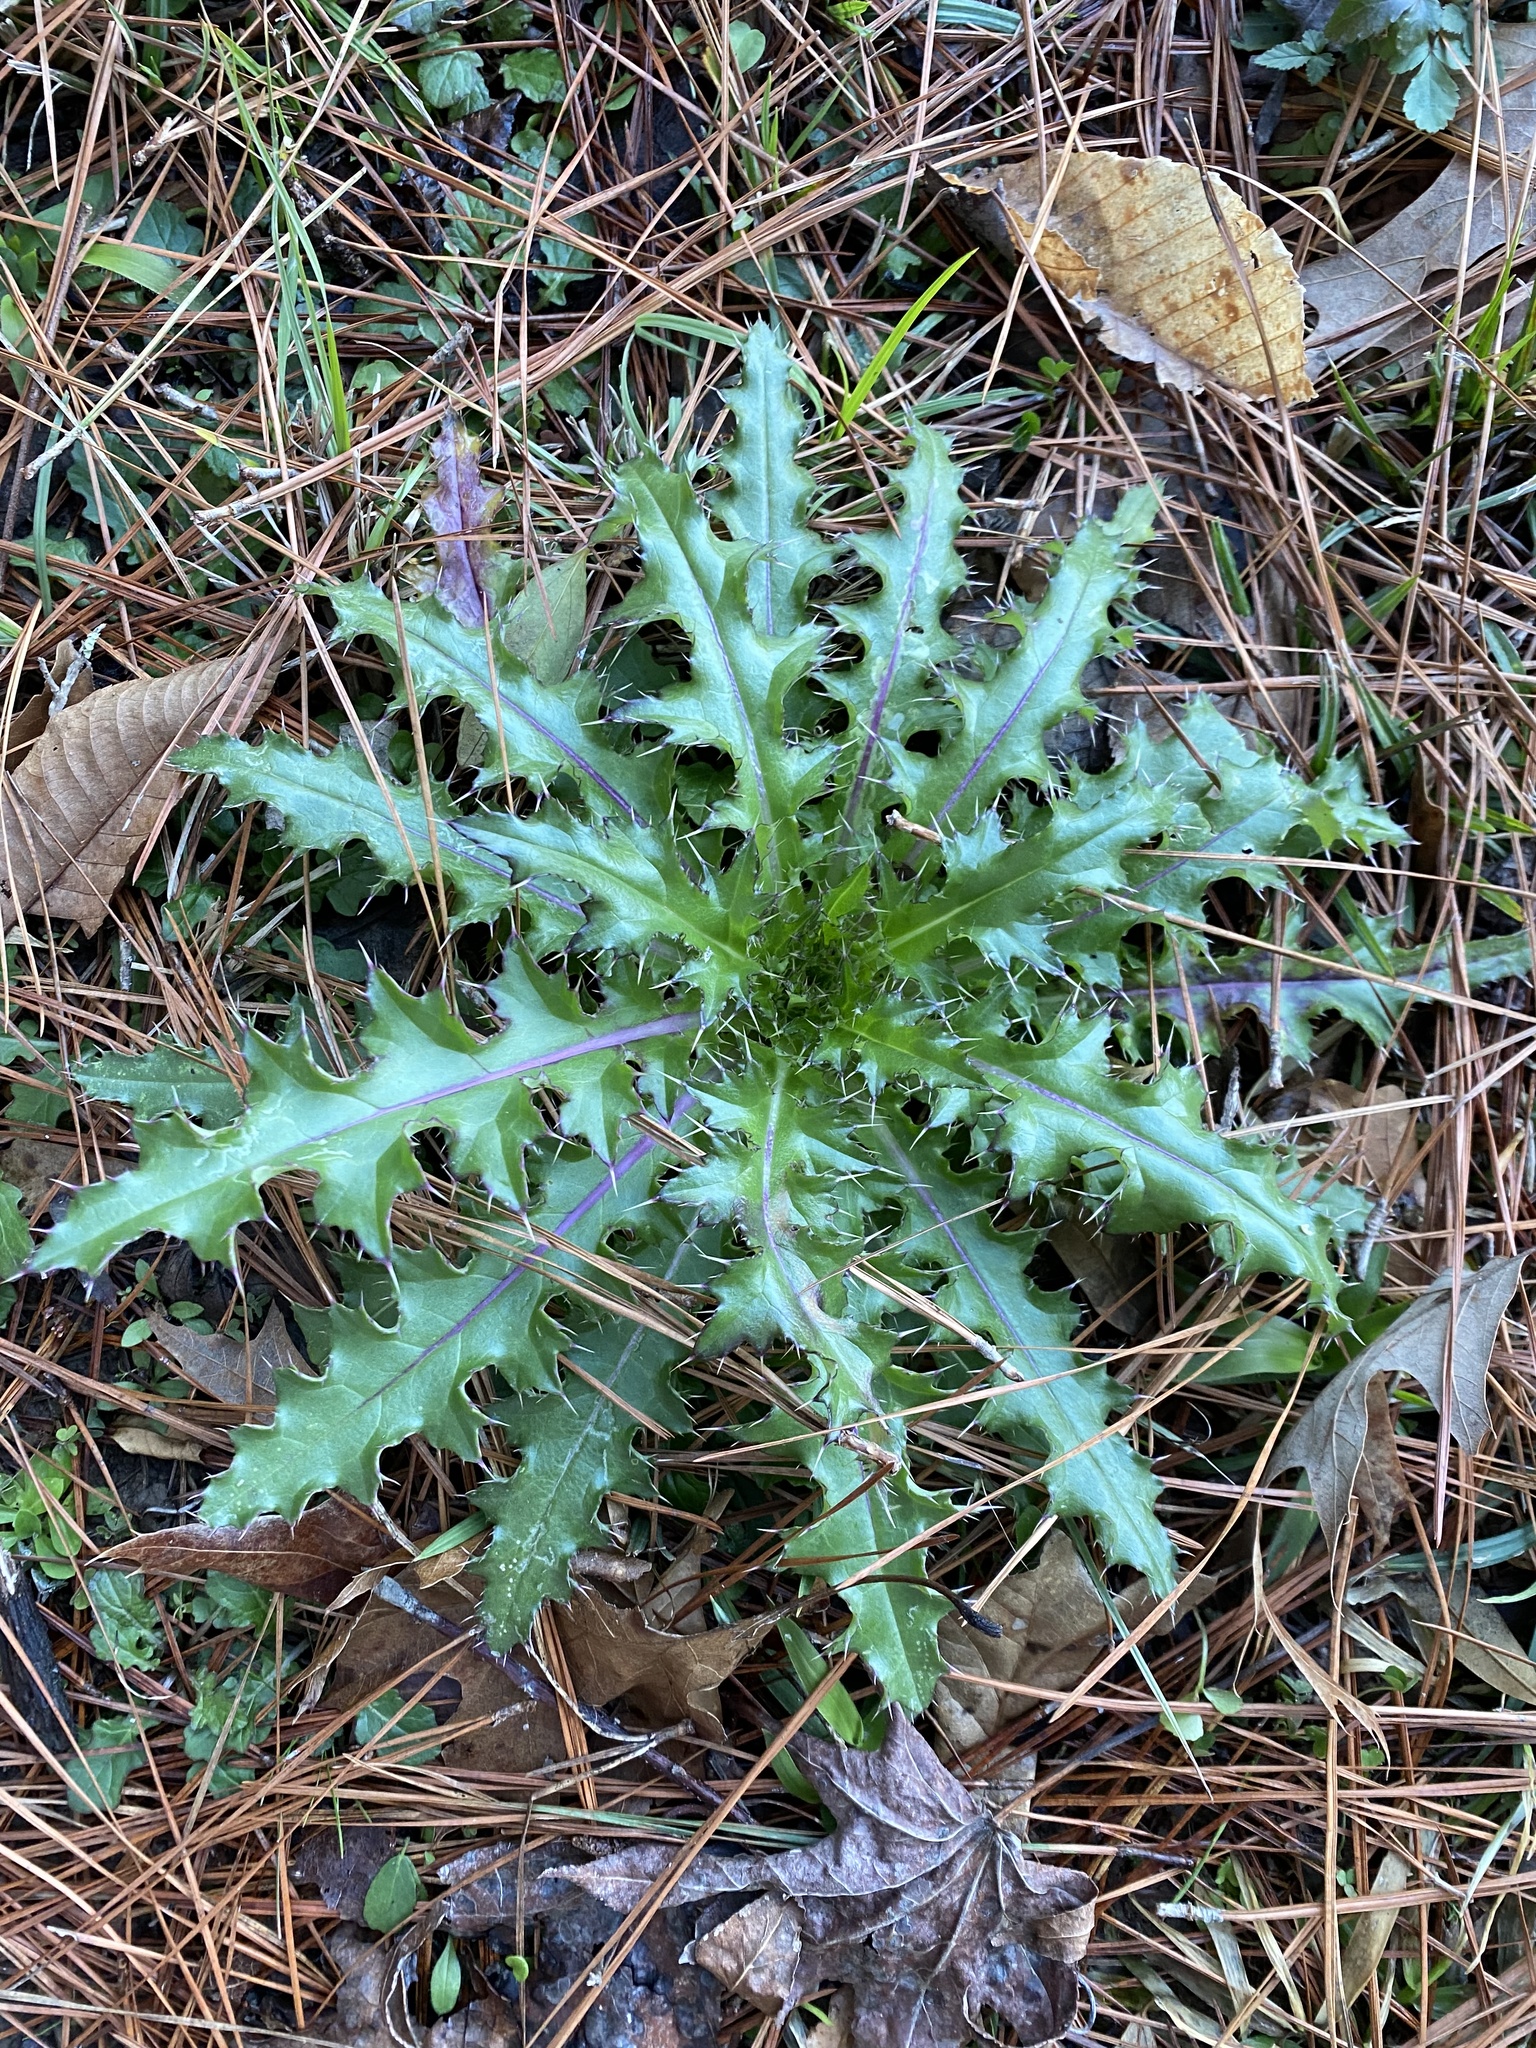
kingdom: Plantae
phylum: Tracheophyta
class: Magnoliopsida
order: Asterales
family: Asteraceae
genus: Cirsium
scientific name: Cirsium horridulum
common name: Bristly thistle
